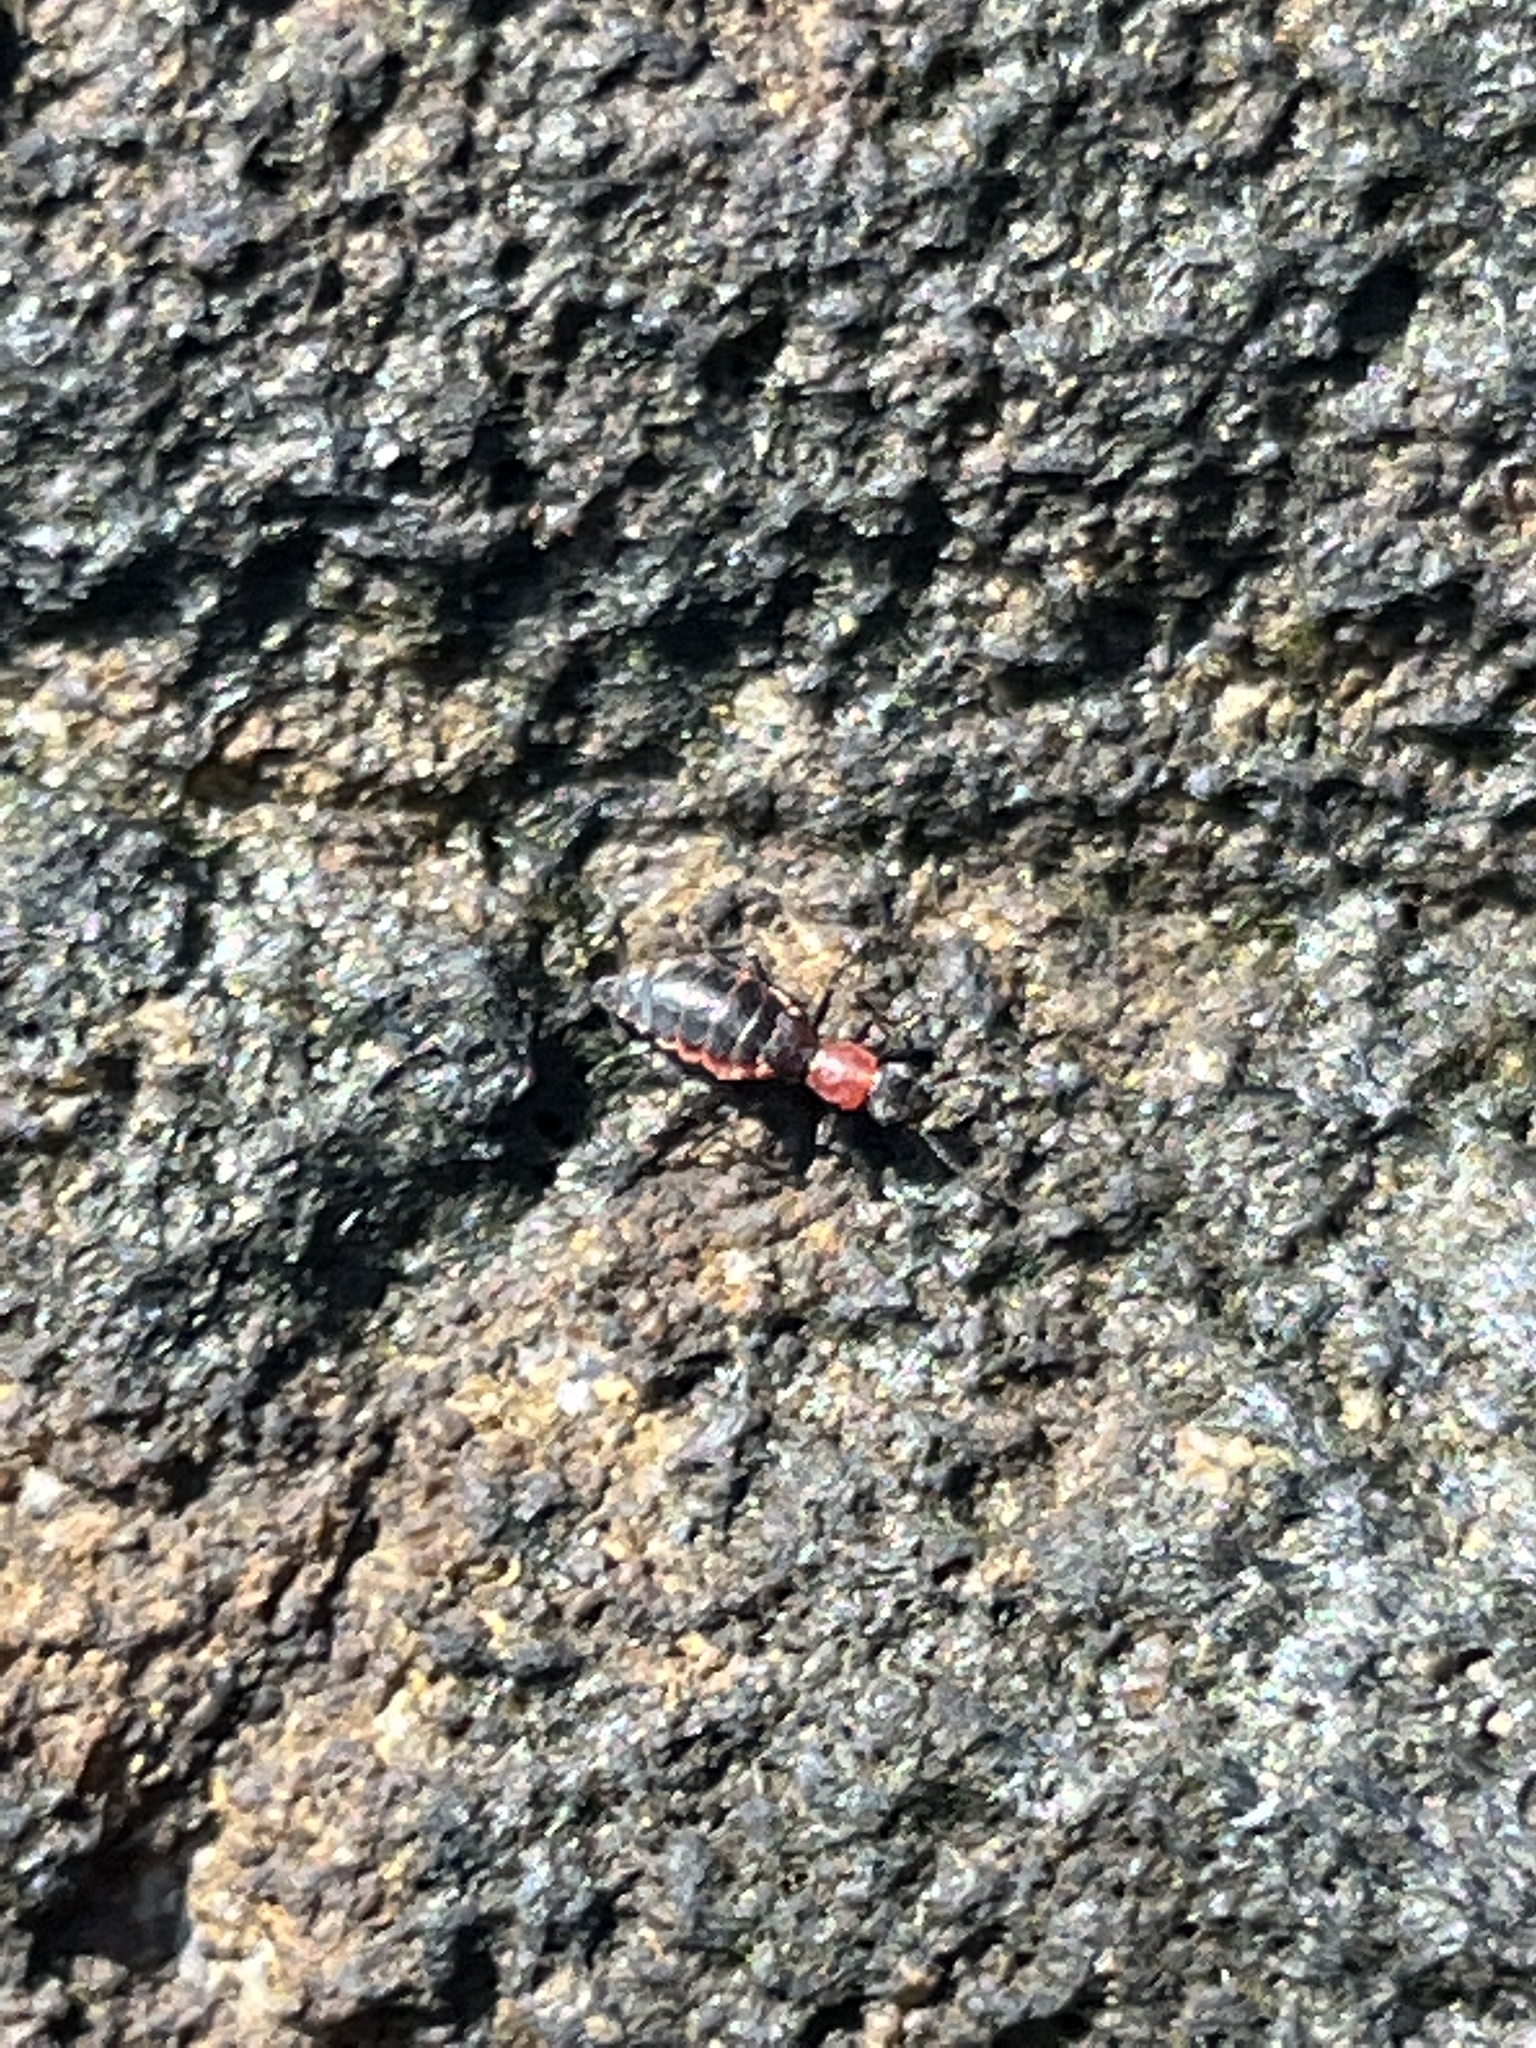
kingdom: Animalia
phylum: Arthropoda
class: Insecta
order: Coleoptera
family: Melyridae
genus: Endeodes
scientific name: Endeodes collaris
